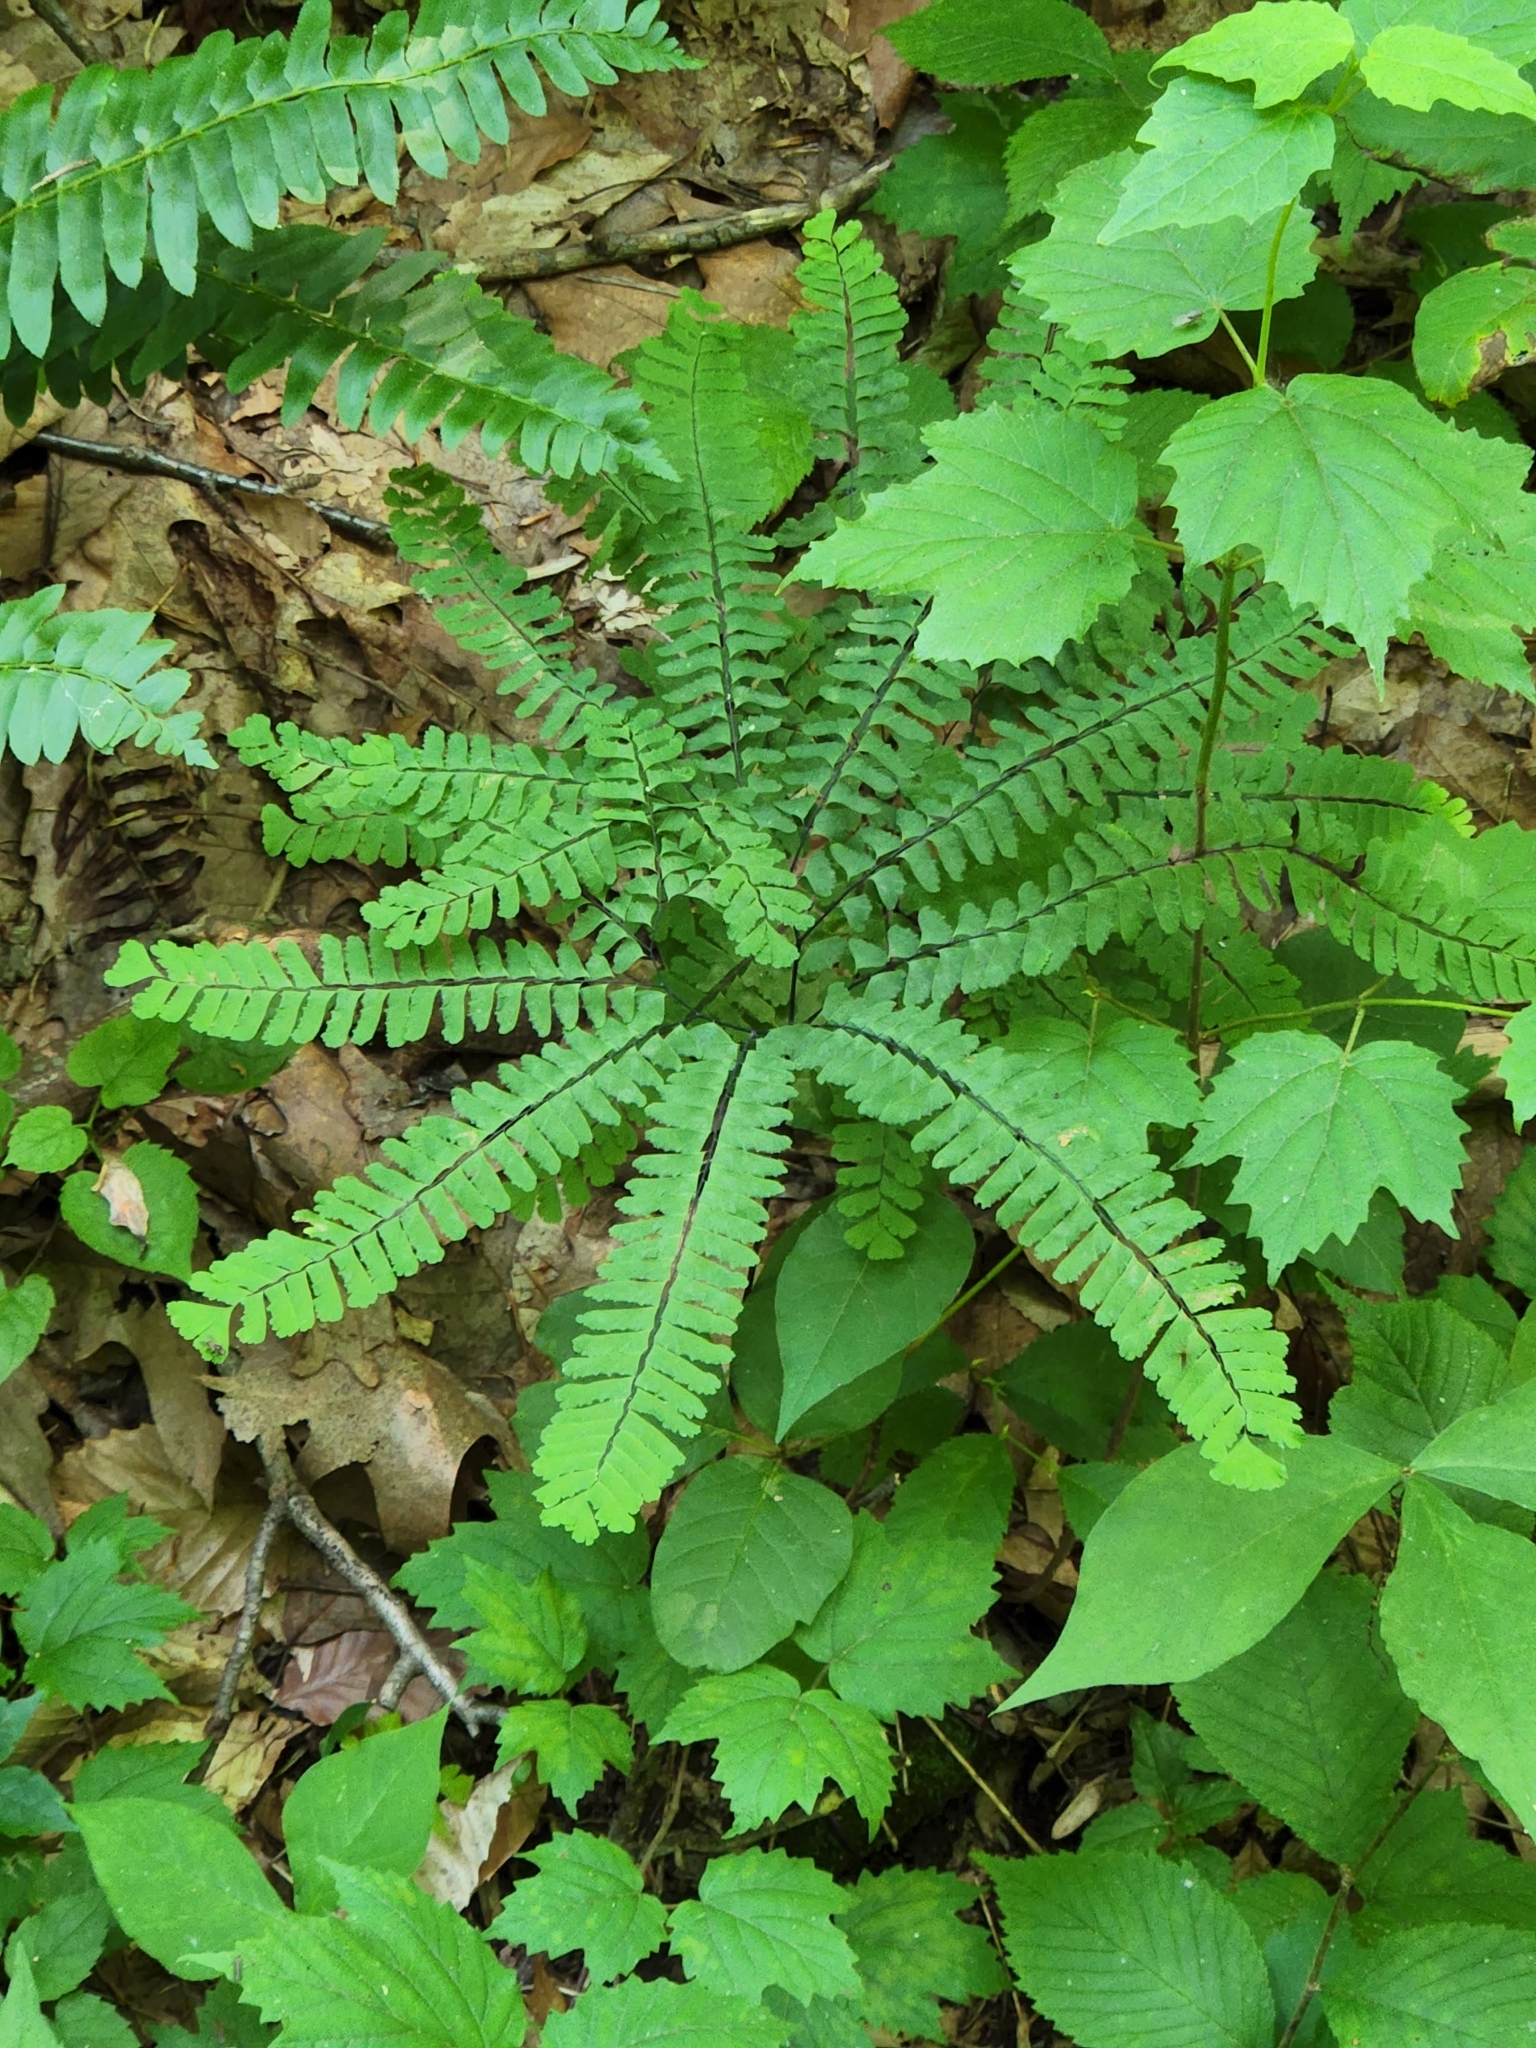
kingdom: Plantae
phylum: Tracheophyta
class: Polypodiopsida
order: Polypodiales
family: Pteridaceae
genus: Adiantum
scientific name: Adiantum pedatum
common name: Five-finger fern
